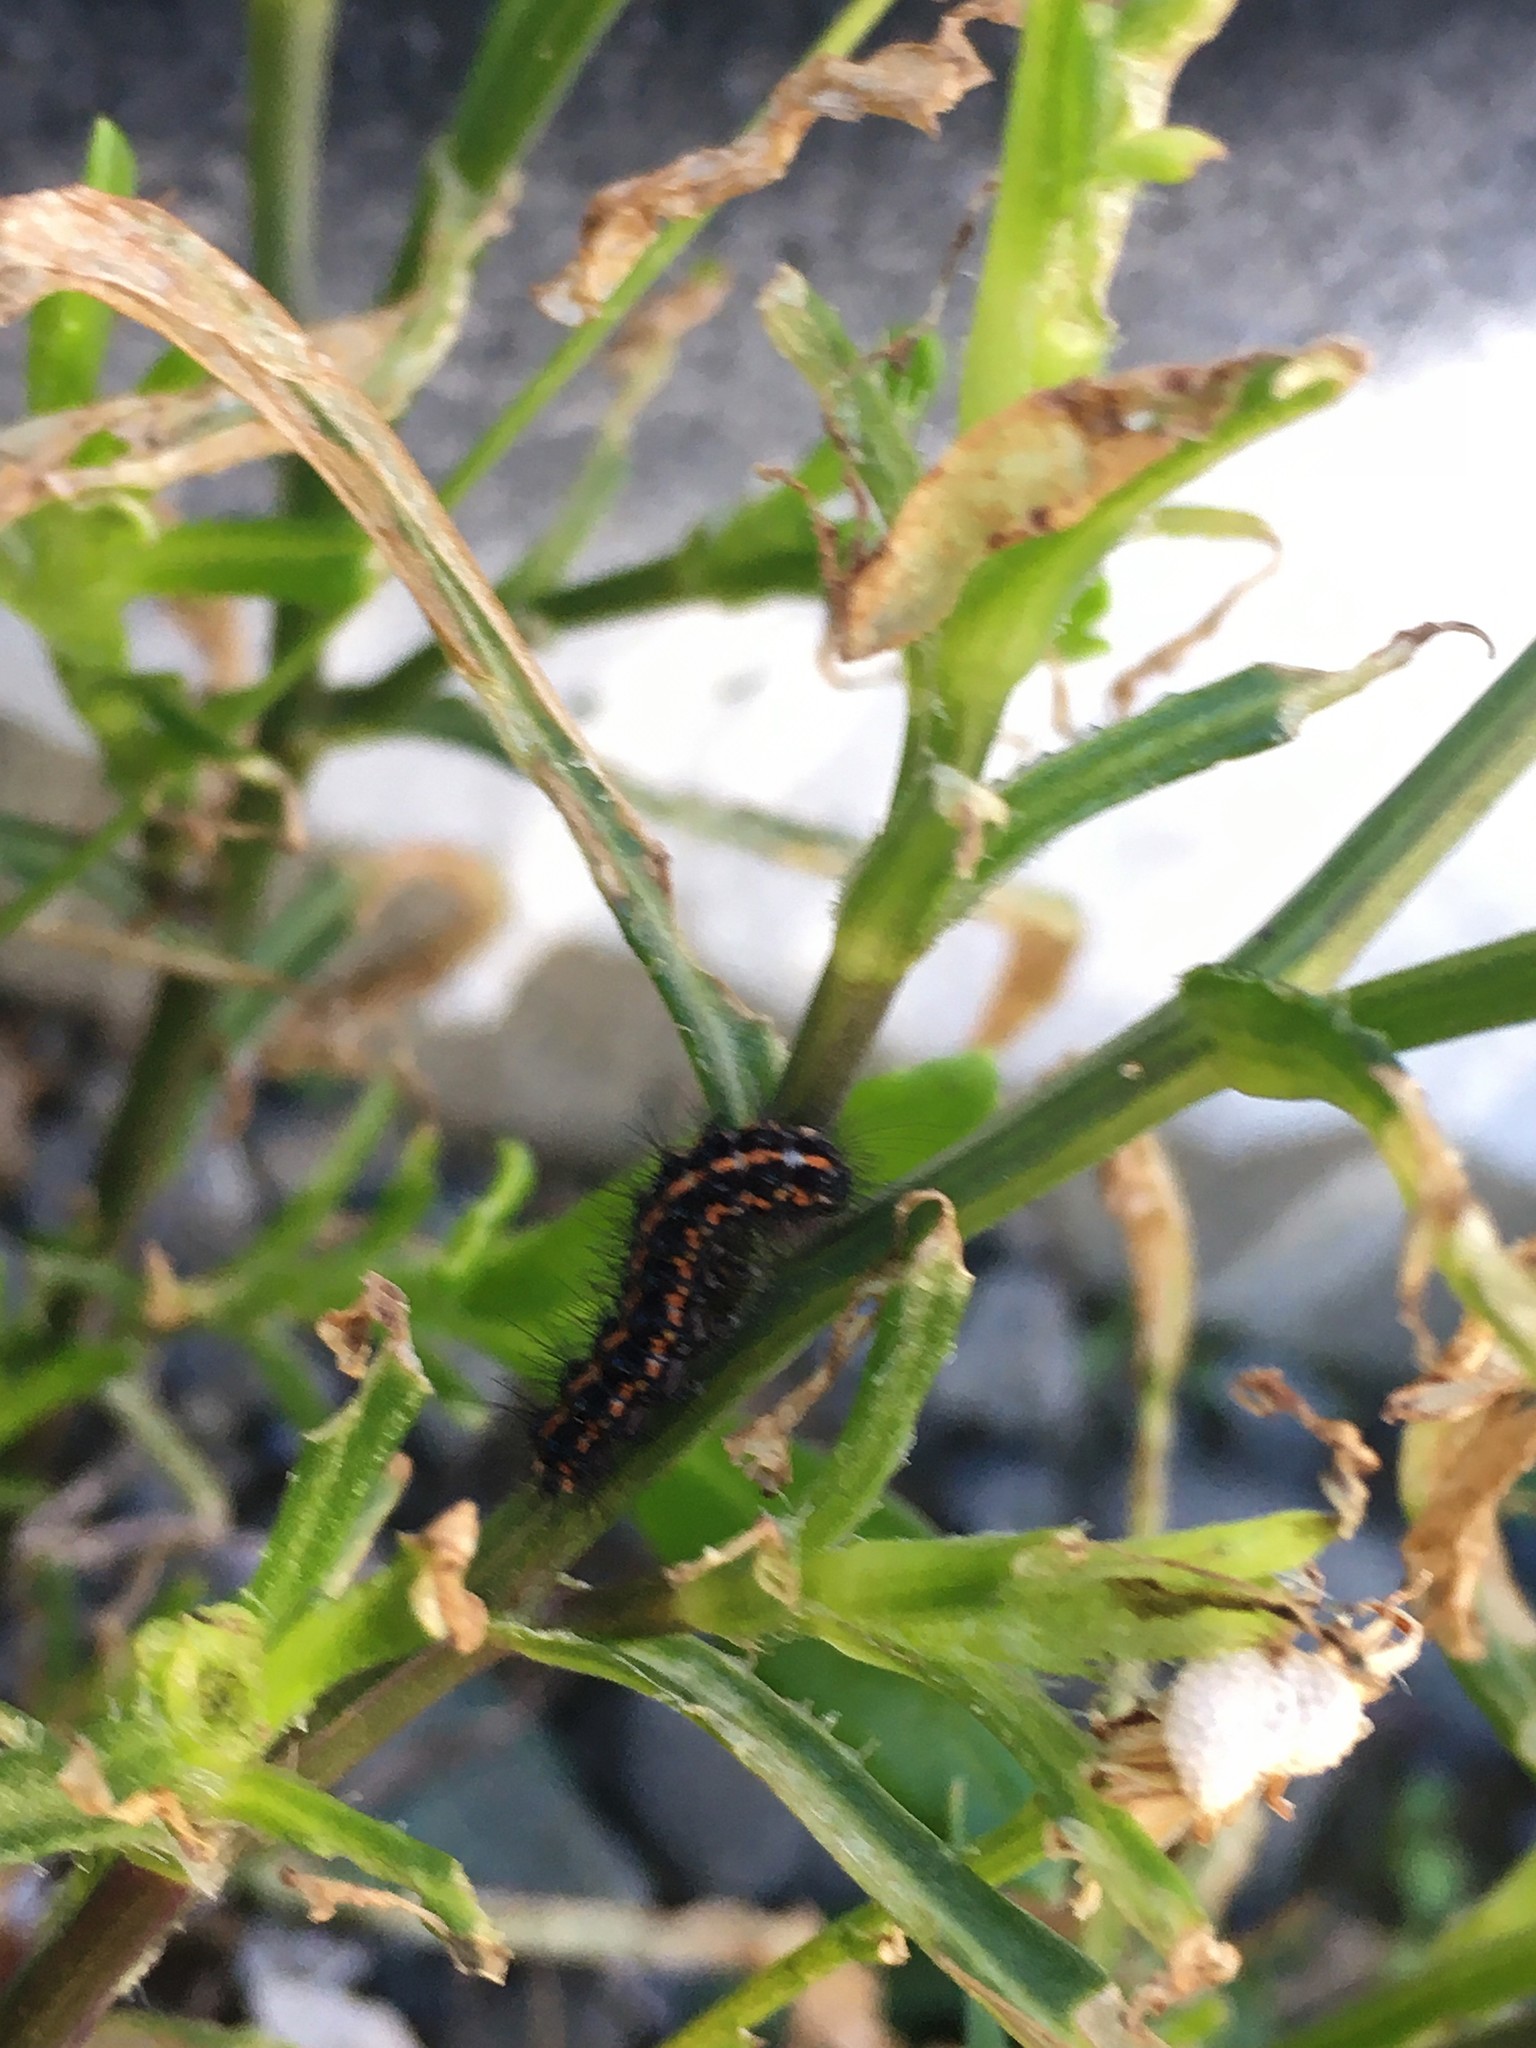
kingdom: Animalia
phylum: Arthropoda
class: Insecta
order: Lepidoptera
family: Erebidae
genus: Nyctemera
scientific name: Nyctemera annulatum
